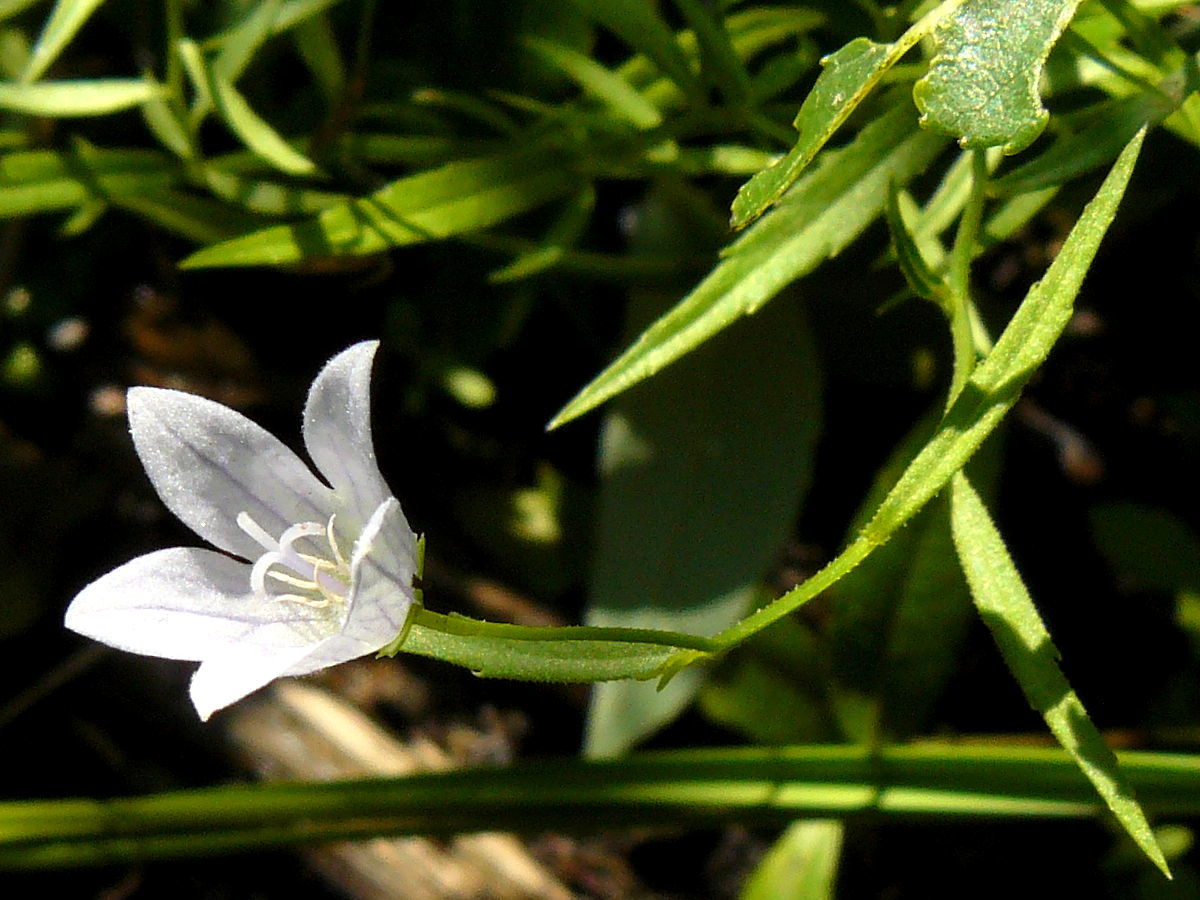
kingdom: Plantae
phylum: Tracheophyta
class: Magnoliopsida
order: Asterales
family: Campanulaceae
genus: Palustricodon
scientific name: Palustricodon aparinoides
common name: Bedstraw bellflower
